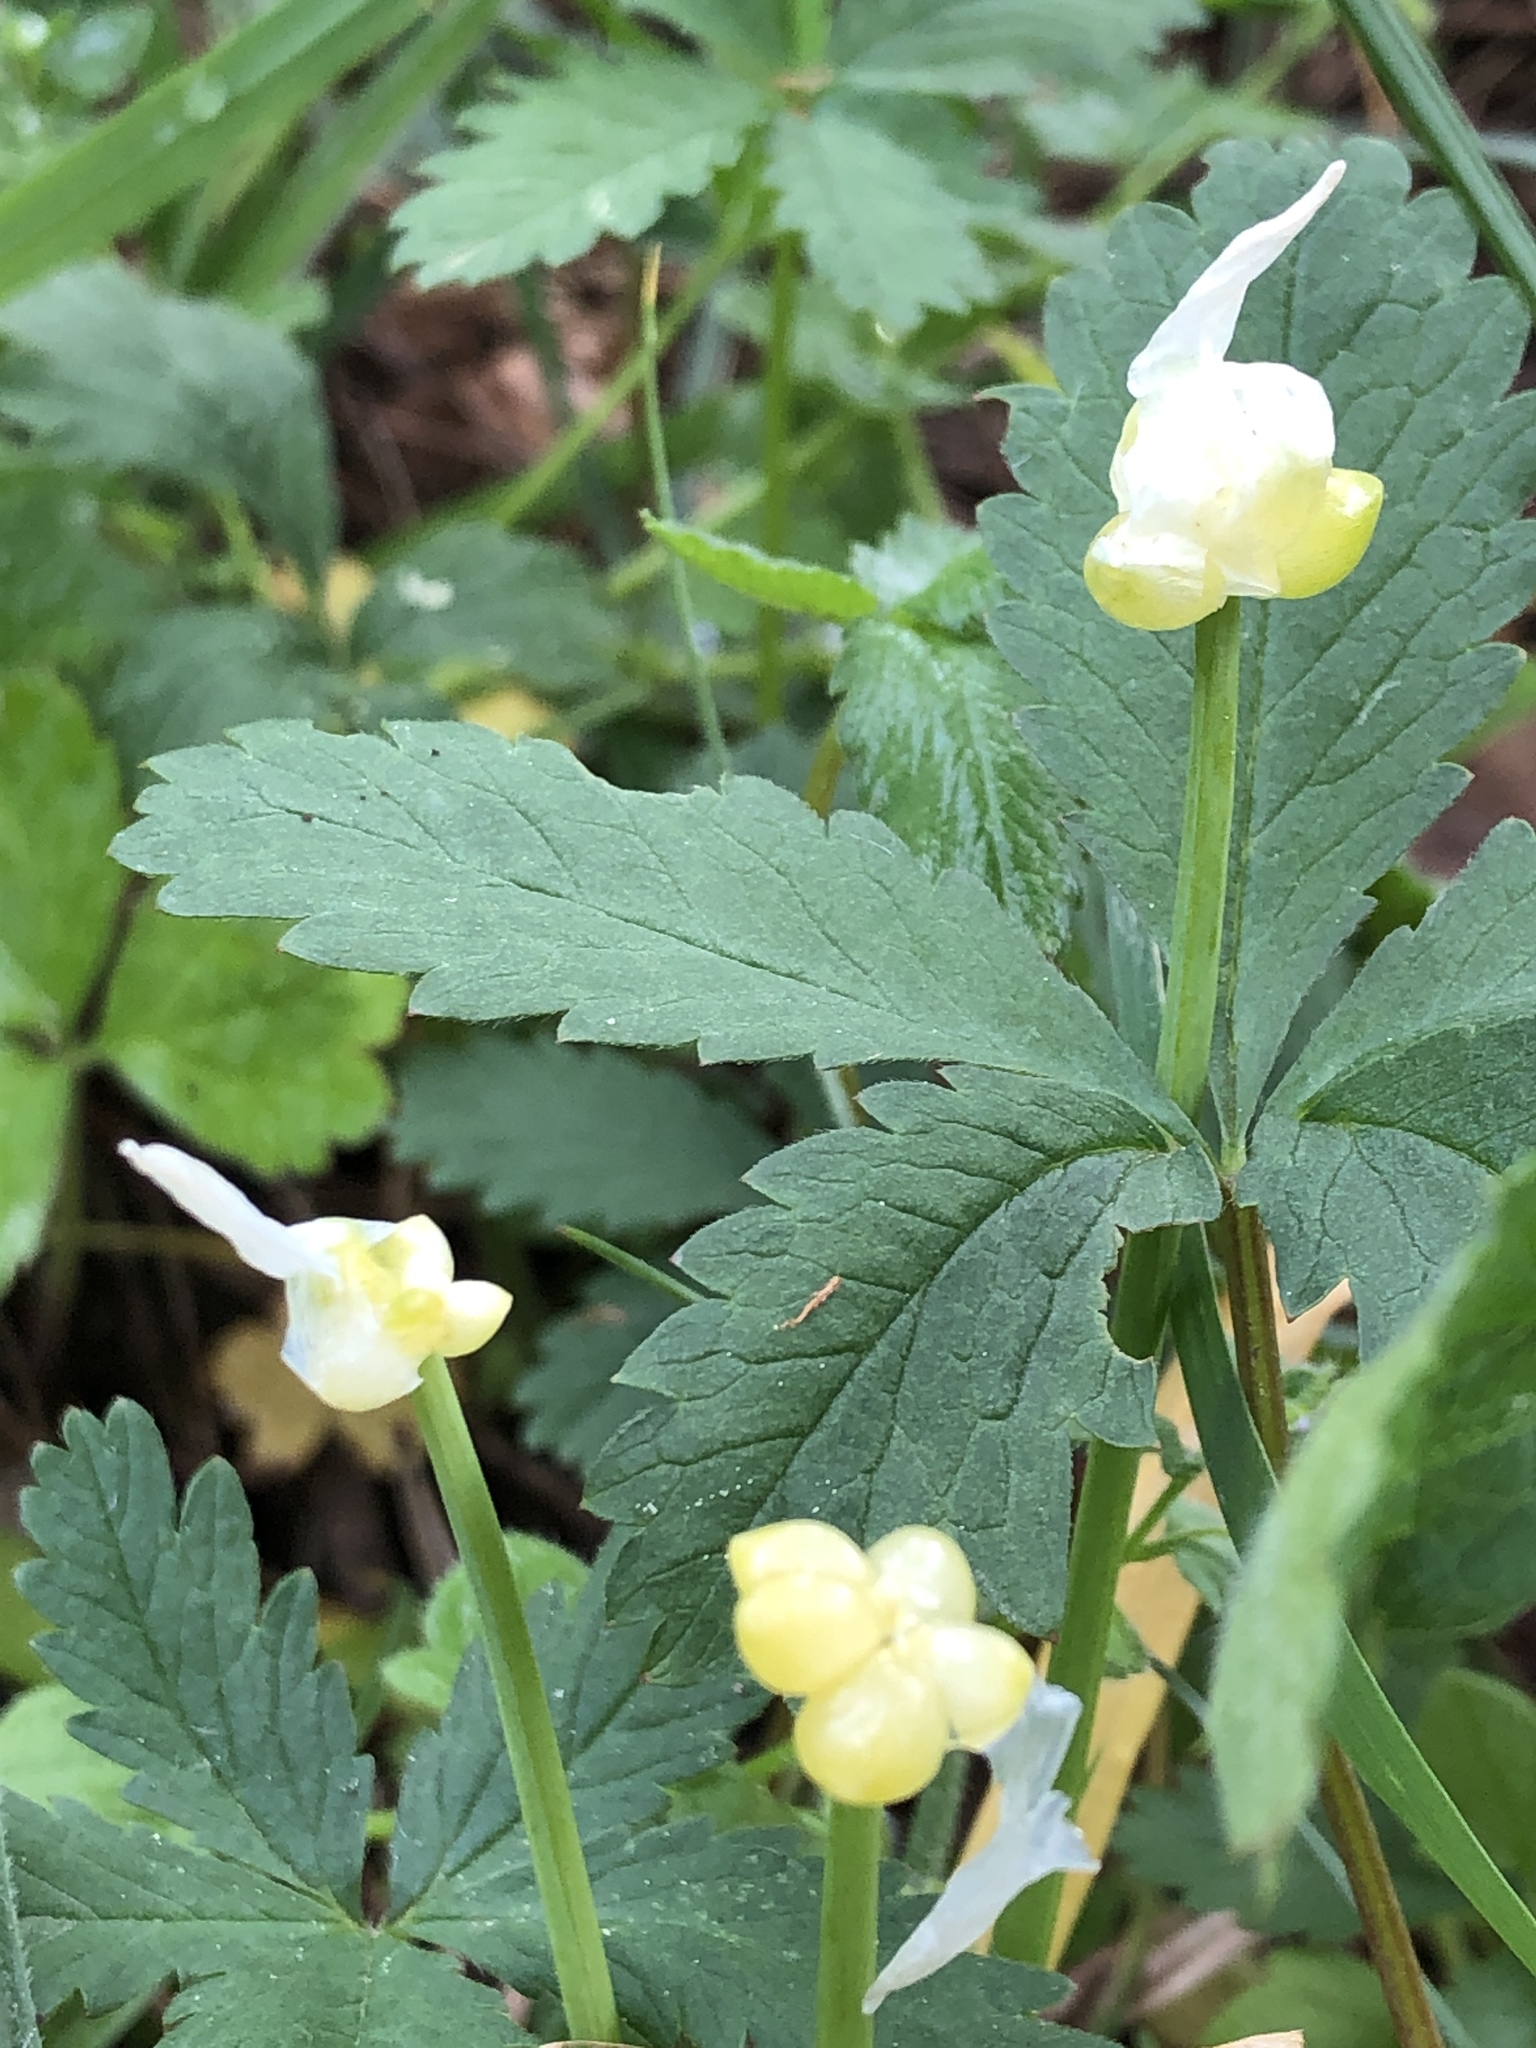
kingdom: Plantae
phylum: Tracheophyta
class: Liliopsida
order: Asparagales
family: Amaryllidaceae
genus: Allium
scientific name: Allium paradoxum
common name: Few-flowered garlic
